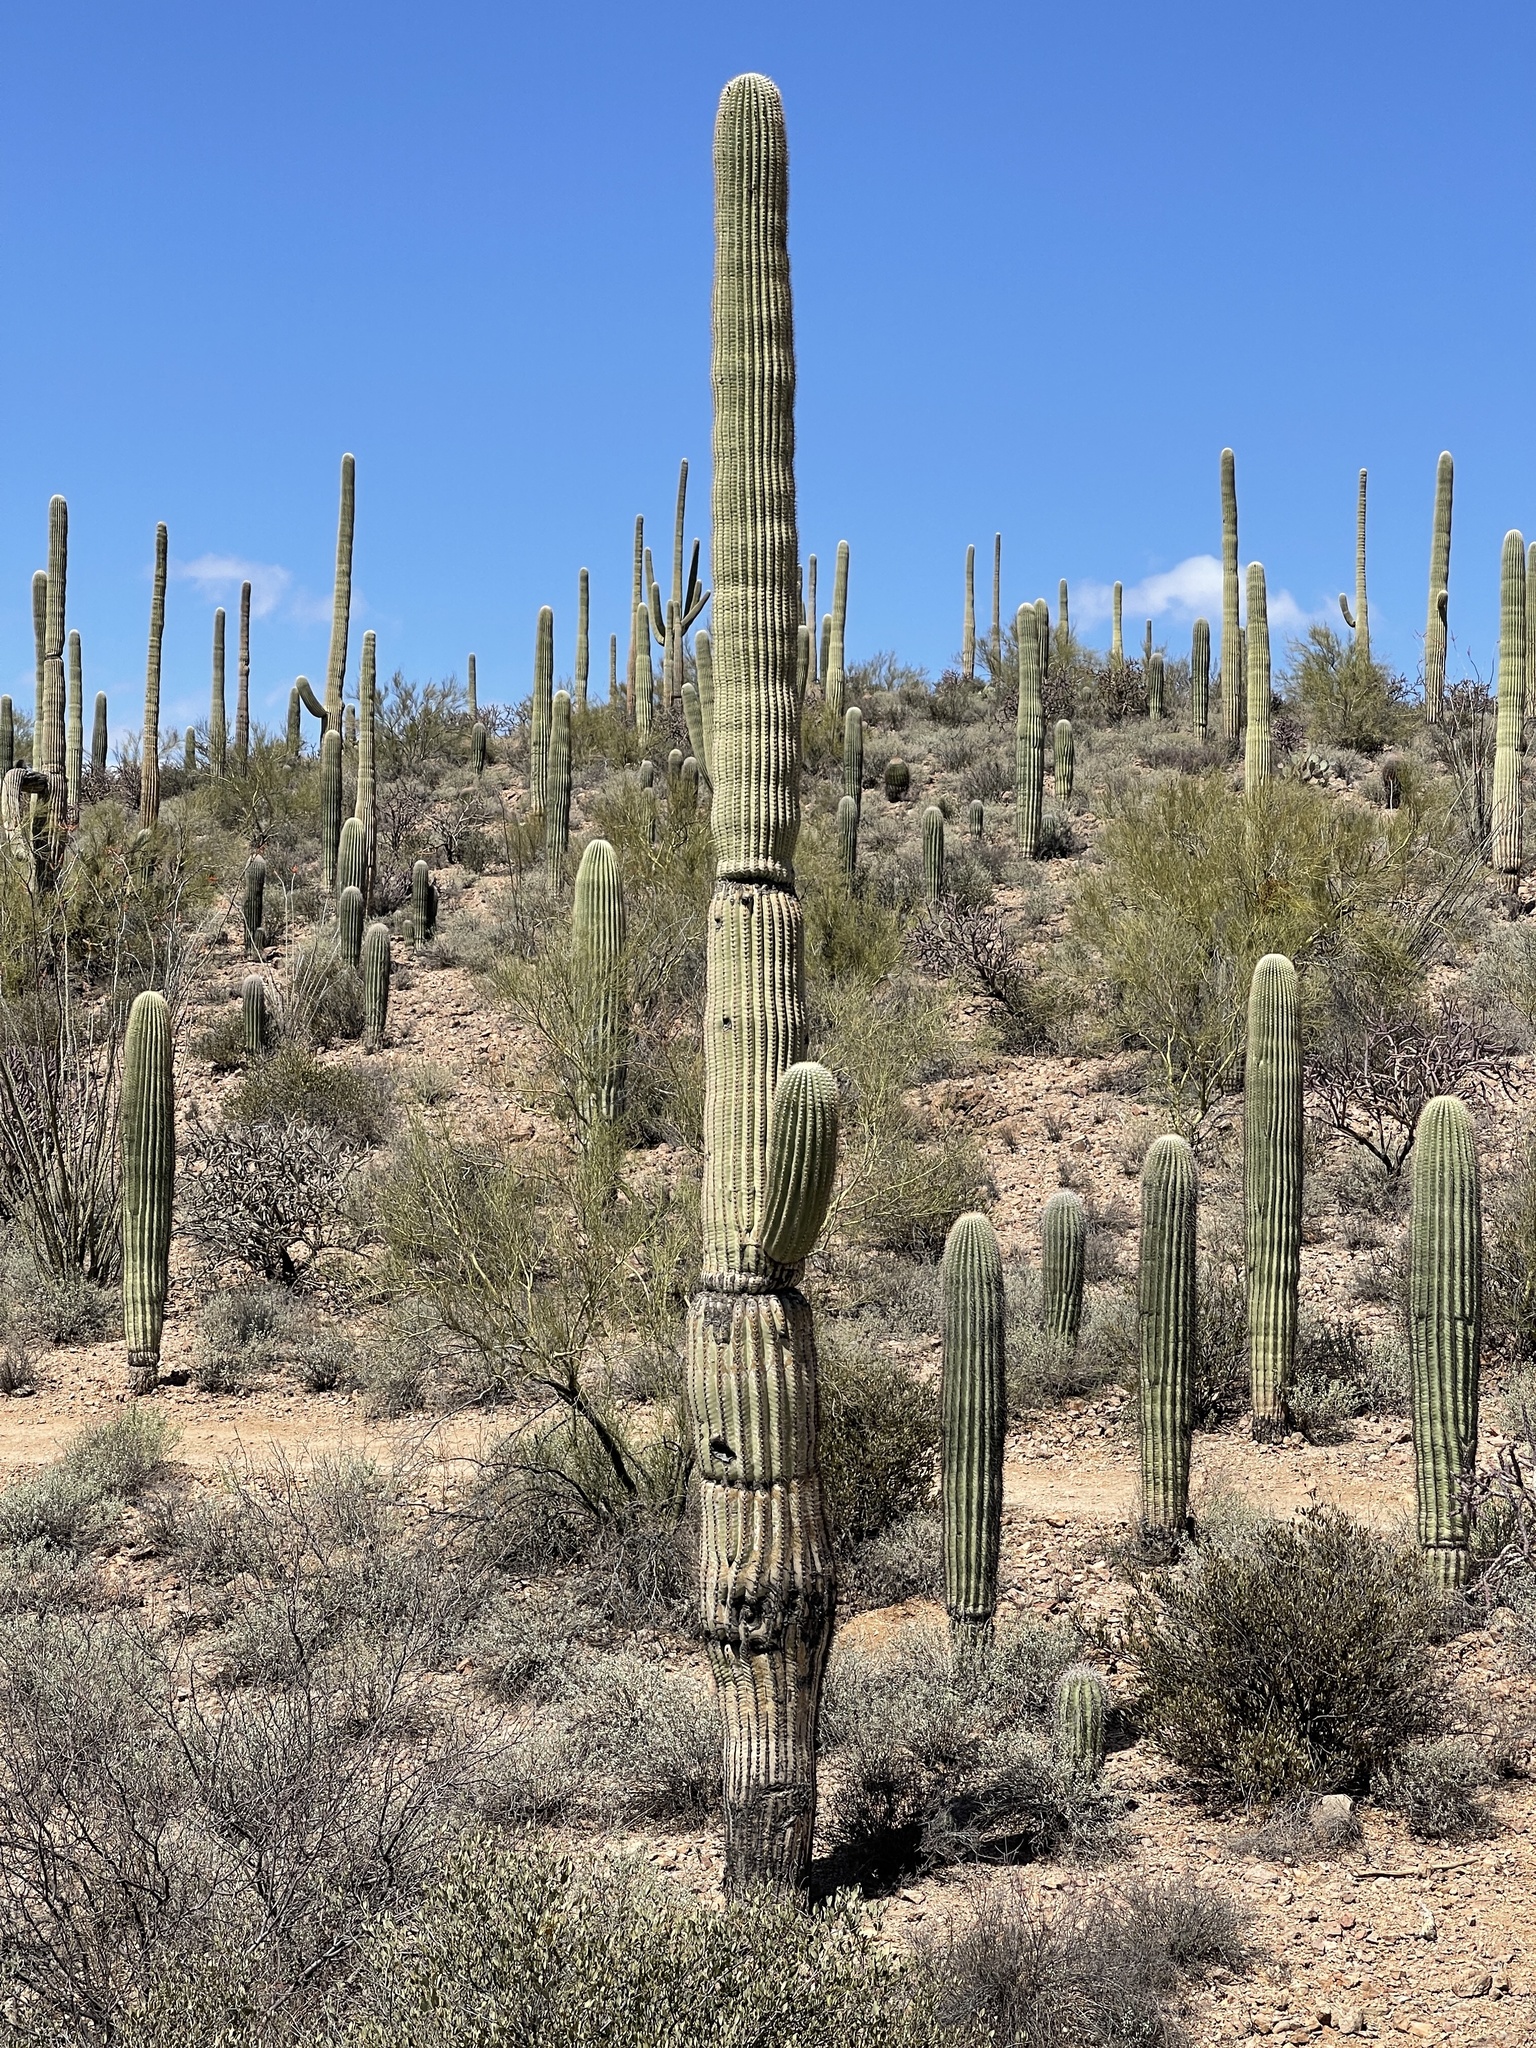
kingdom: Plantae
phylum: Tracheophyta
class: Magnoliopsida
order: Caryophyllales
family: Cactaceae
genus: Carnegiea
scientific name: Carnegiea gigantea
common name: Saguaro
